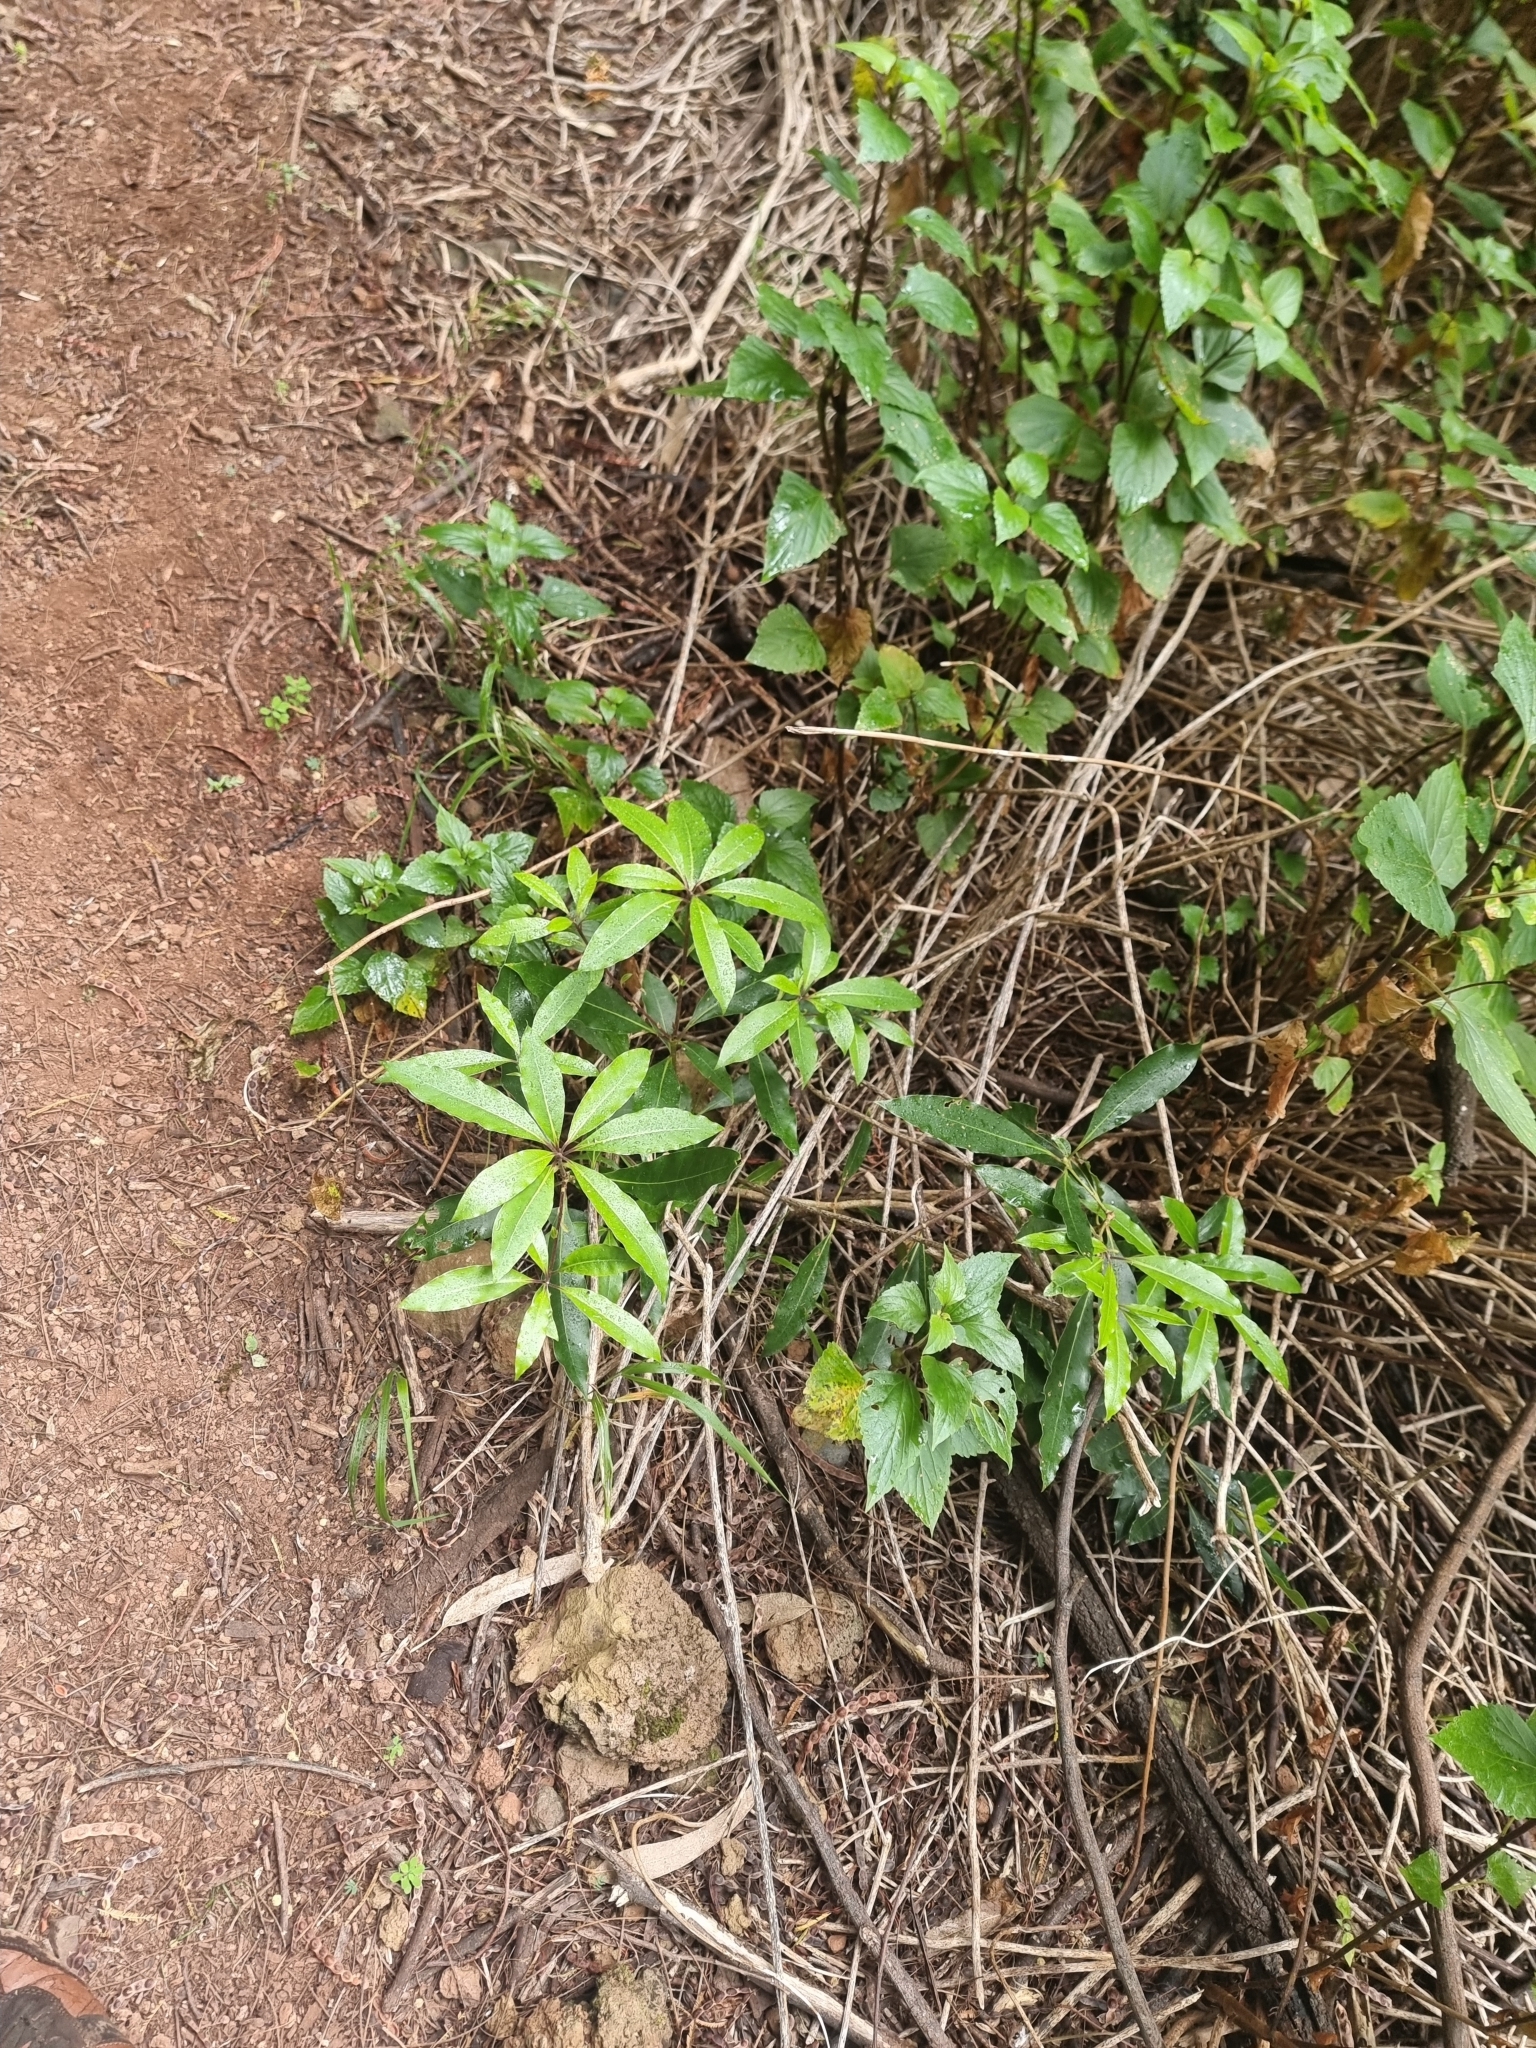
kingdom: Plantae
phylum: Tracheophyta
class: Magnoliopsida
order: Apiales
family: Pittosporaceae
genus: Pittosporum
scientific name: Pittosporum undulatum
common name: Australian cheesewood
